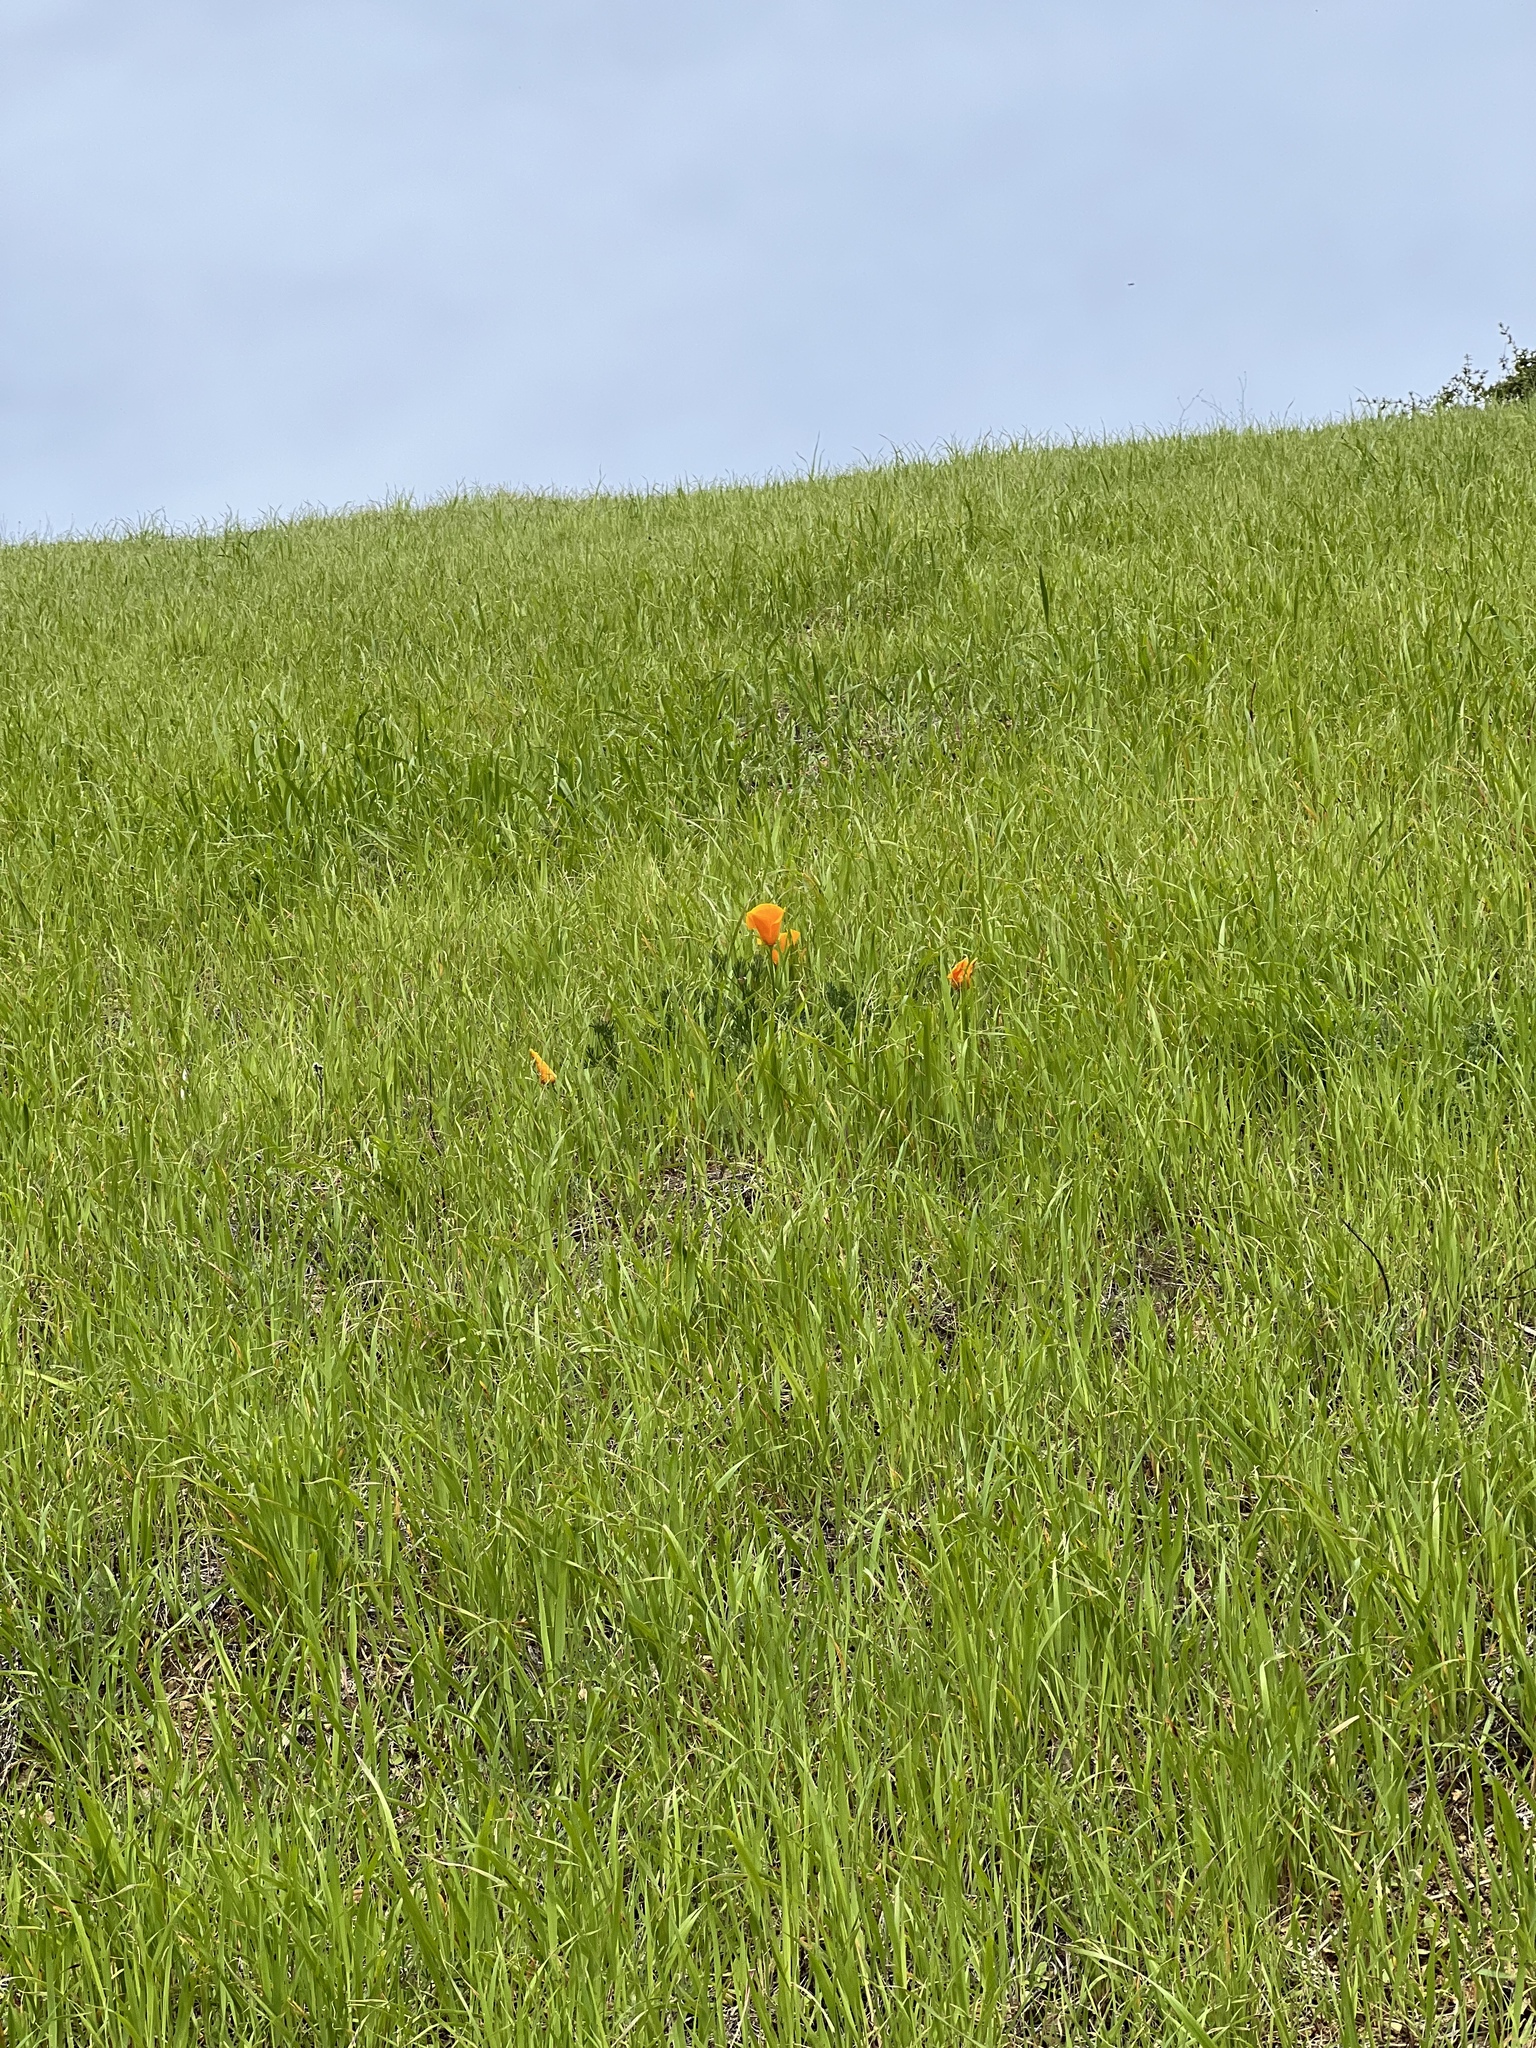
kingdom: Plantae
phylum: Tracheophyta
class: Magnoliopsida
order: Ranunculales
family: Papaveraceae
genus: Eschscholzia
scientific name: Eschscholzia californica
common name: California poppy
